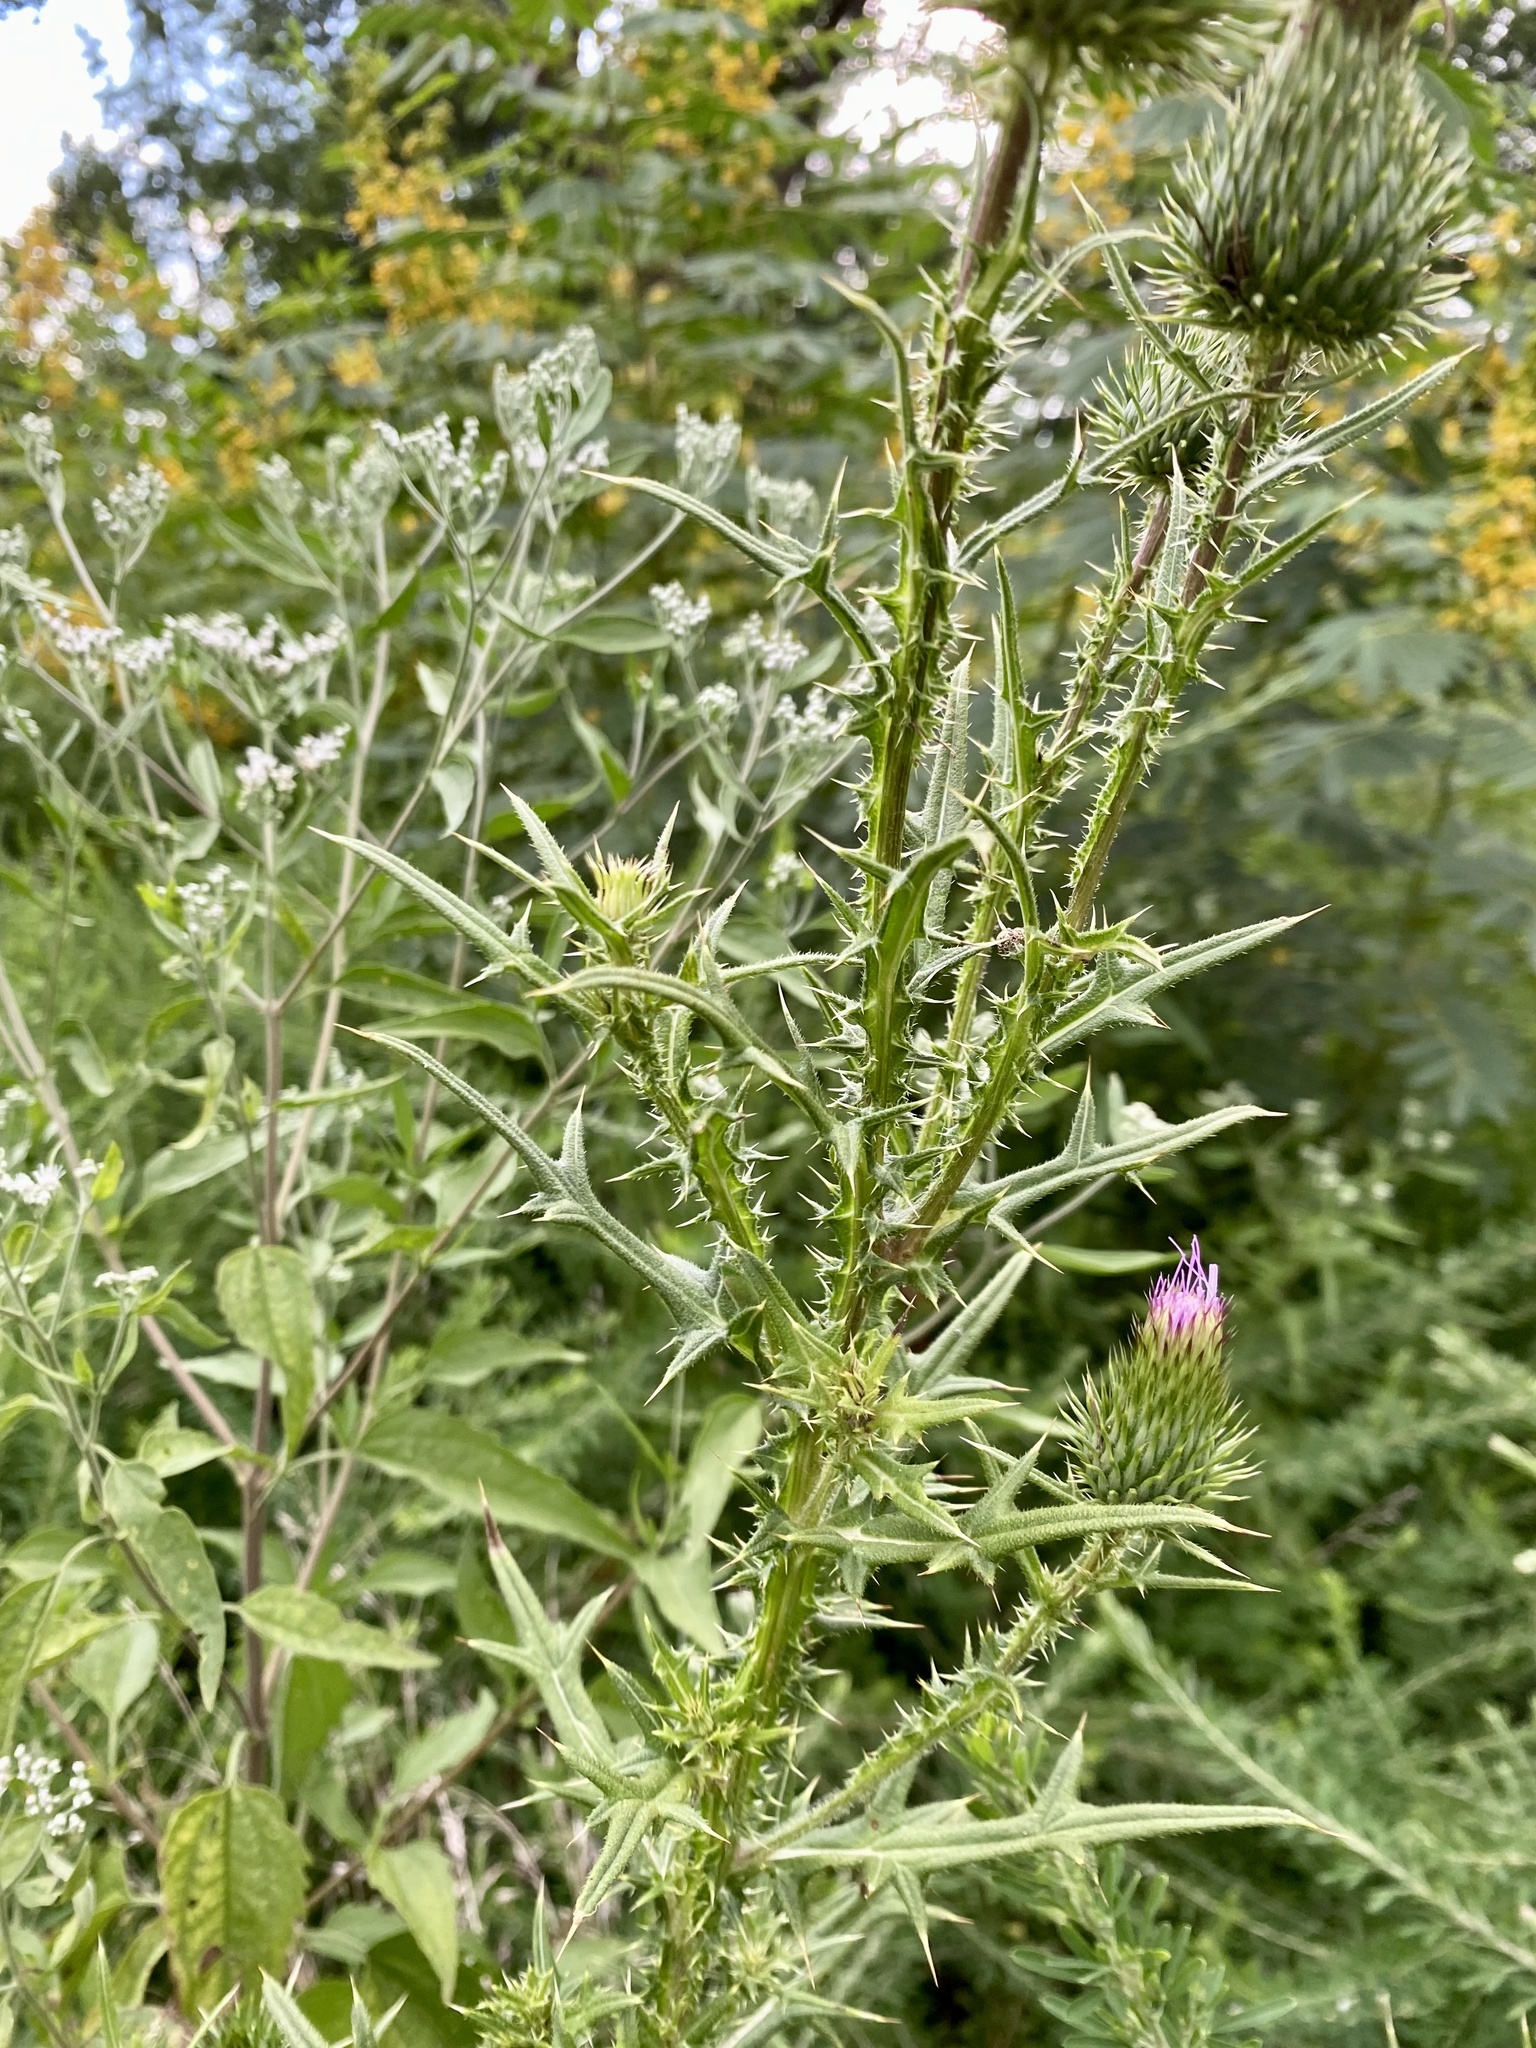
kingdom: Plantae
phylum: Tracheophyta
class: Magnoliopsida
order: Asterales
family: Asteraceae
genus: Cirsium
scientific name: Cirsium vulgare
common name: Bull thistle
